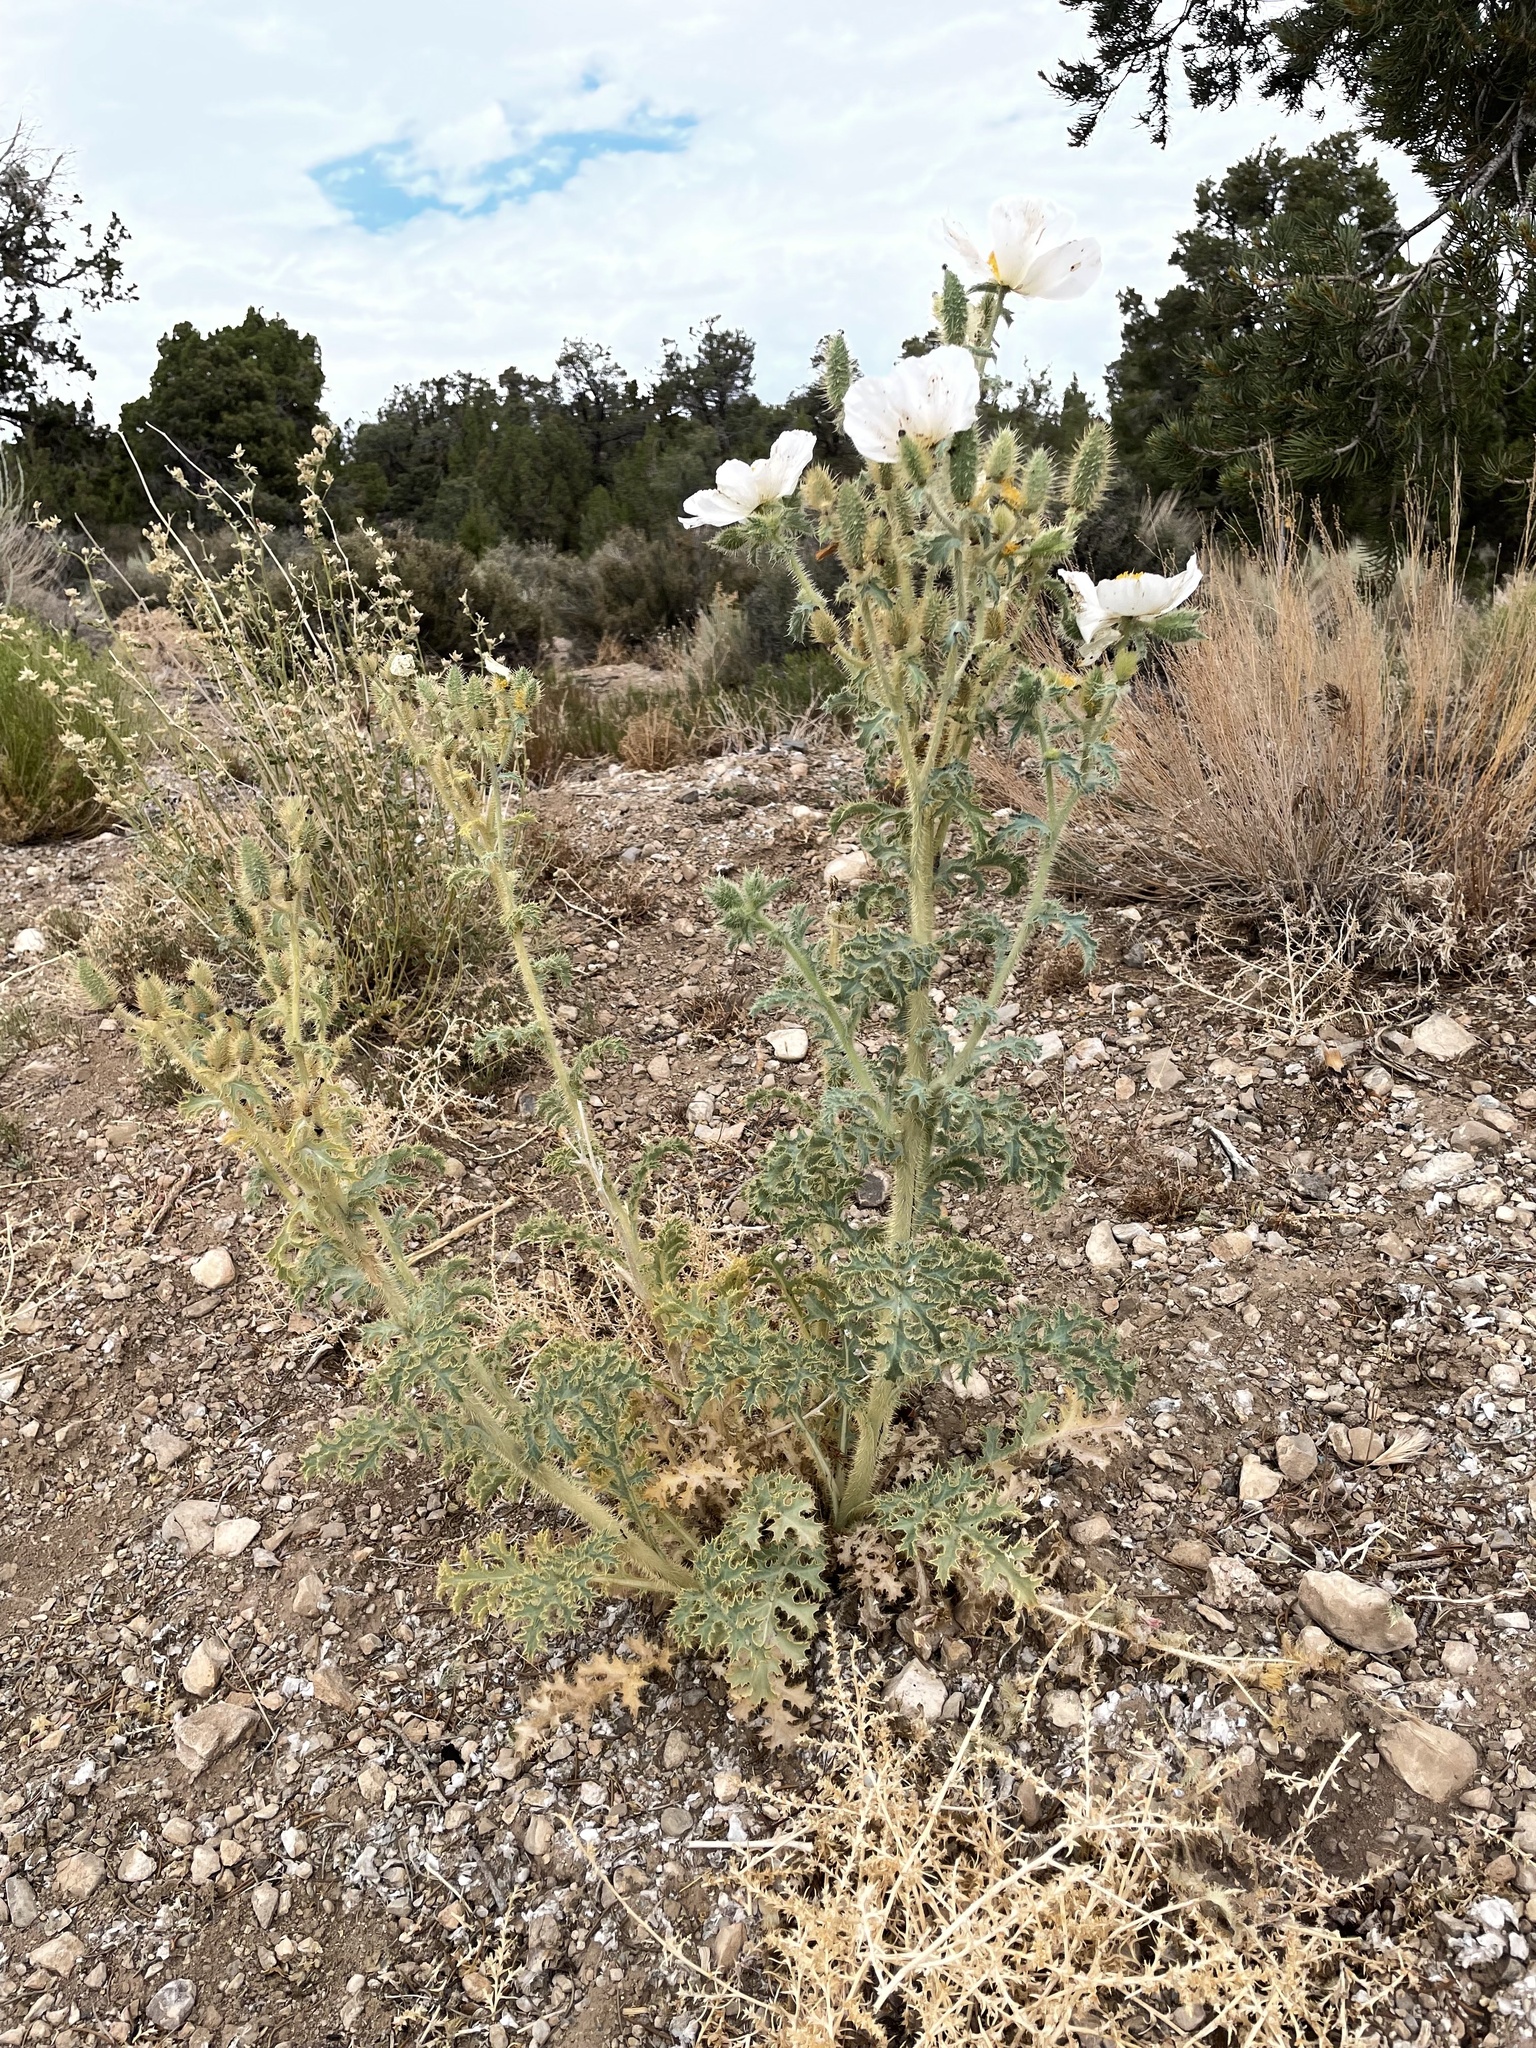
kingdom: Plantae
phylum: Tracheophyta
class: Magnoliopsida
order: Ranunculales
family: Papaveraceae
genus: Argemone
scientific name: Argemone munita
